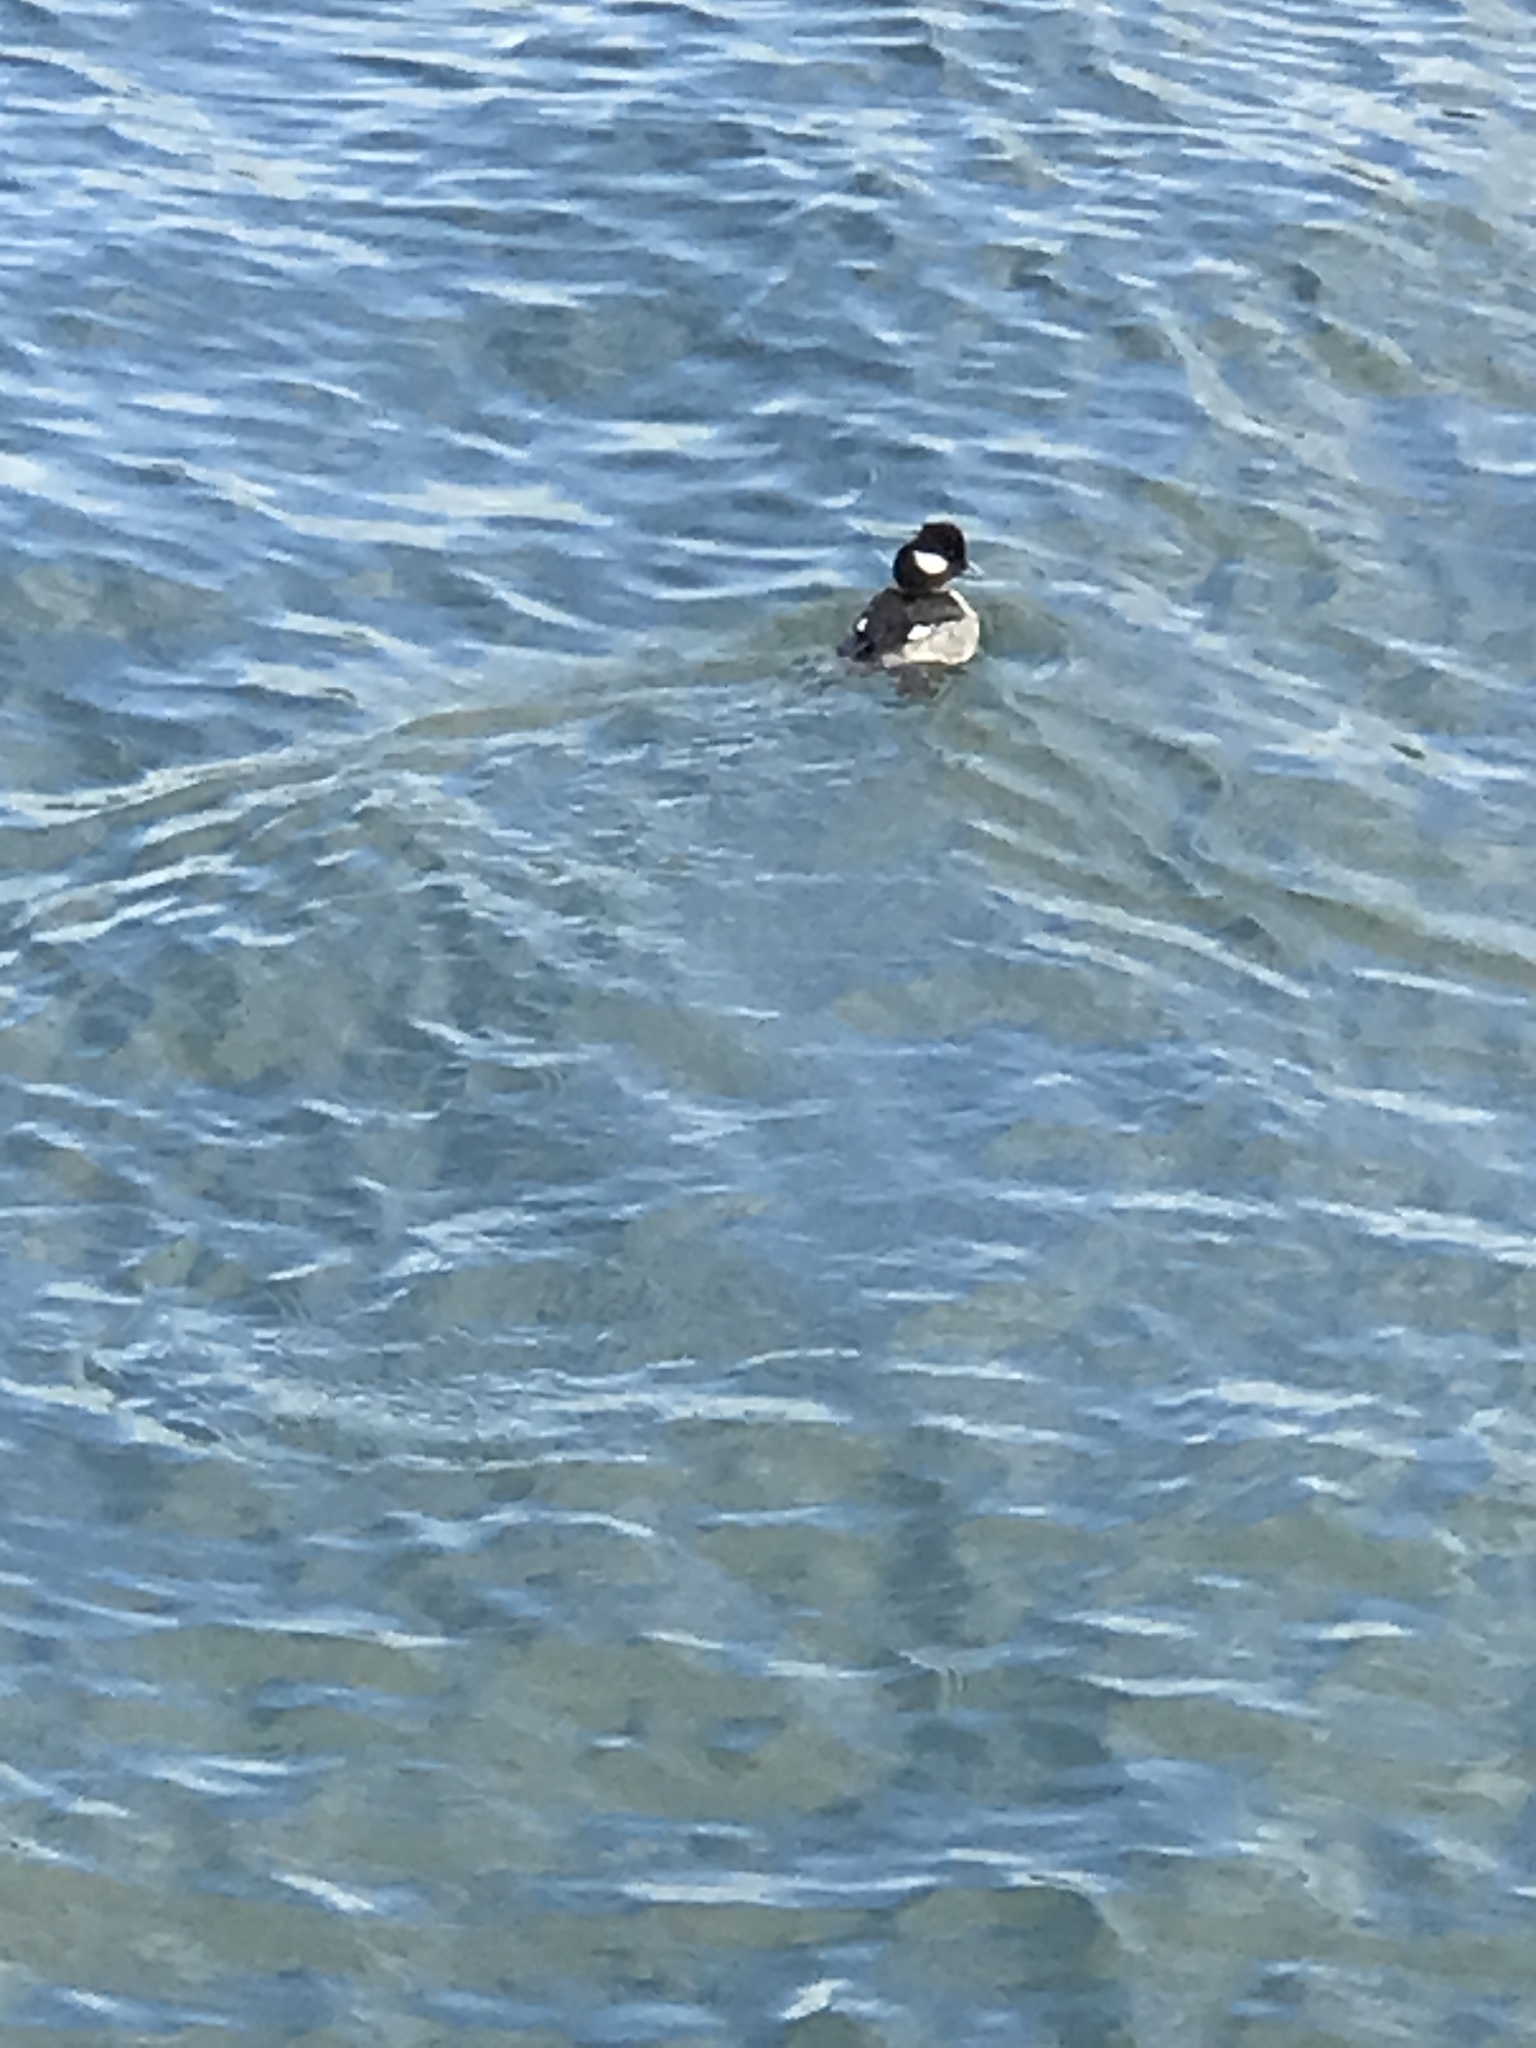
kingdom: Animalia
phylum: Chordata
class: Aves
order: Anseriformes
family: Anatidae
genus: Bucephala
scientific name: Bucephala albeola
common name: Bufflehead
